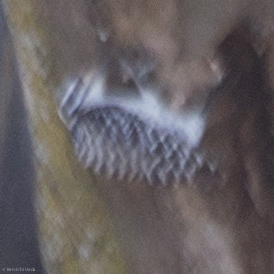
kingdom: Animalia
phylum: Chordata
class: Aves
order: Piciformes
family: Picidae
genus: Dryobates
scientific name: Dryobates nuttallii
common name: Nuttall's woodpecker
